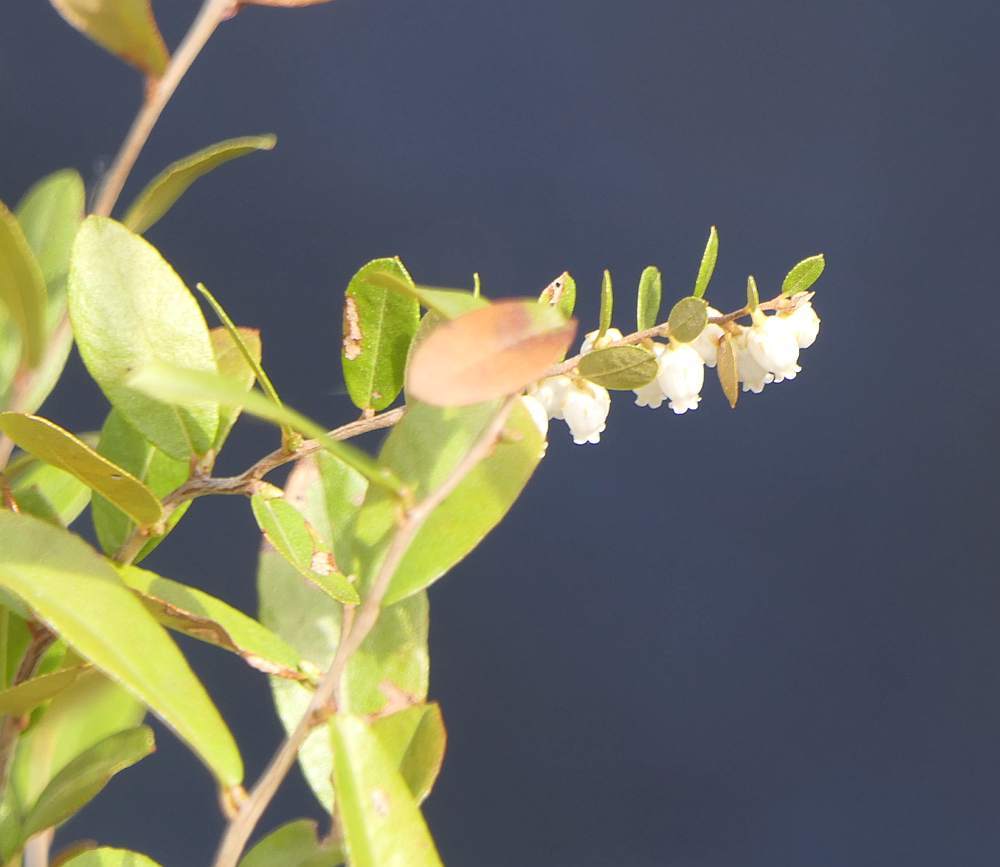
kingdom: Plantae
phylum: Tracheophyta
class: Magnoliopsida
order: Ericales
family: Ericaceae
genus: Chamaedaphne
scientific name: Chamaedaphne calyculata
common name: Leatherleaf
